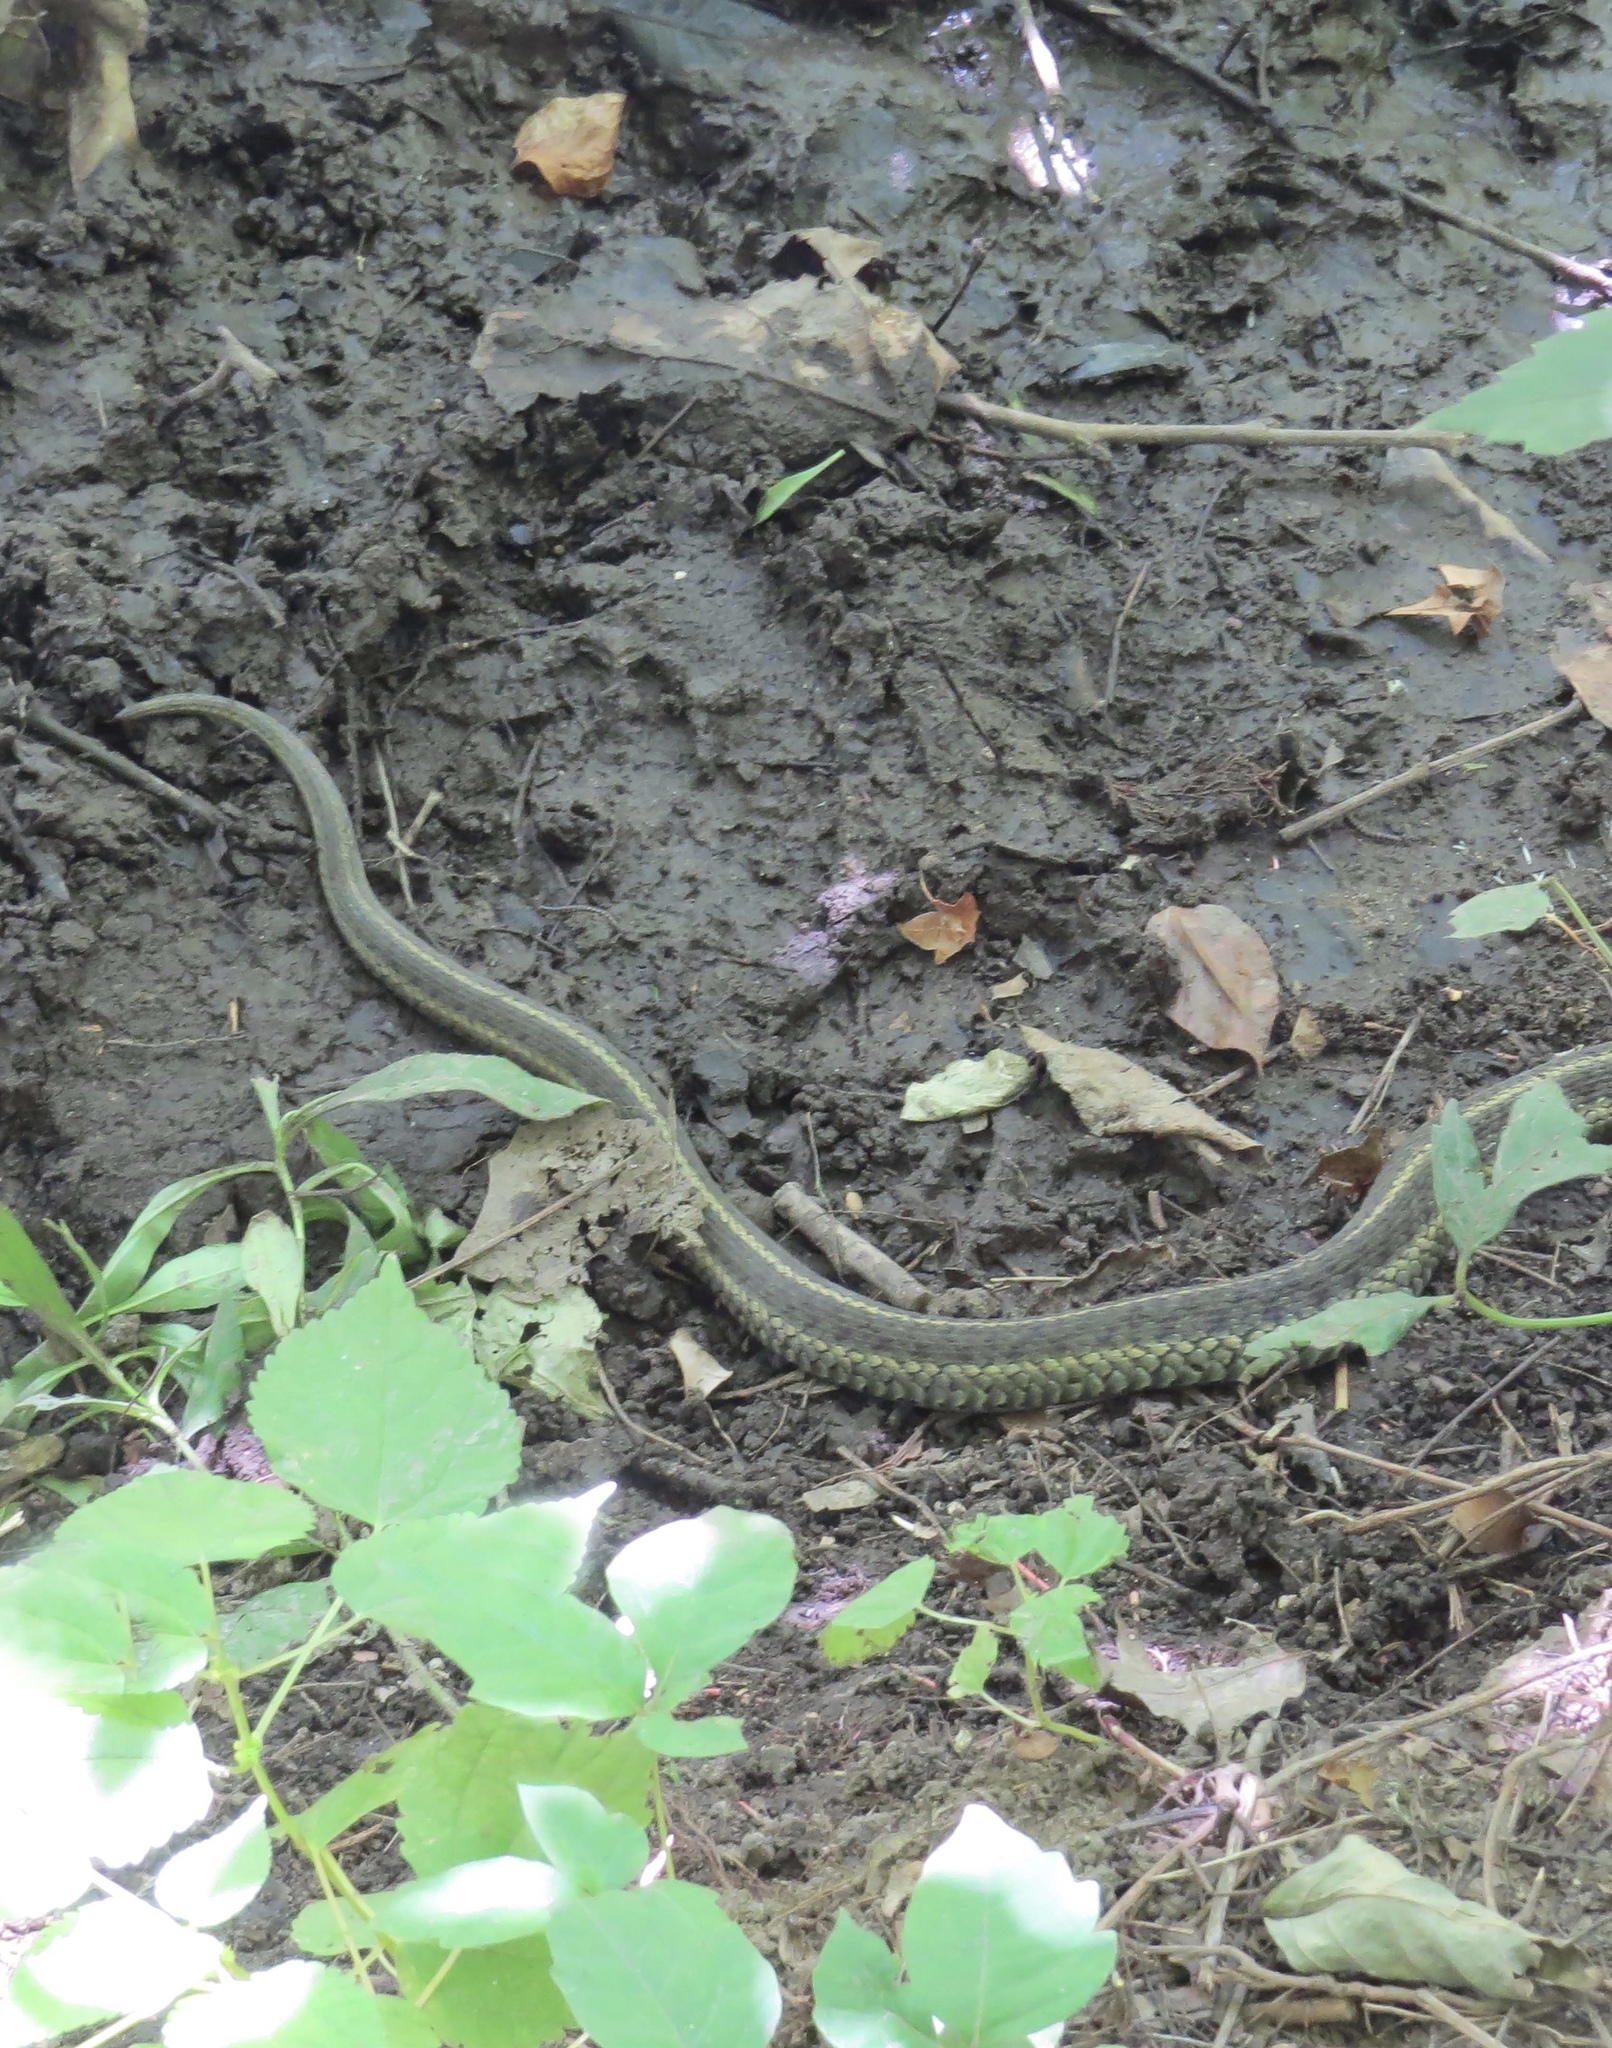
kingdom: Animalia
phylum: Chordata
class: Squamata
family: Colubridae
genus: Thamnophis
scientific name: Thamnophis sirtalis
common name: Common garter snake
